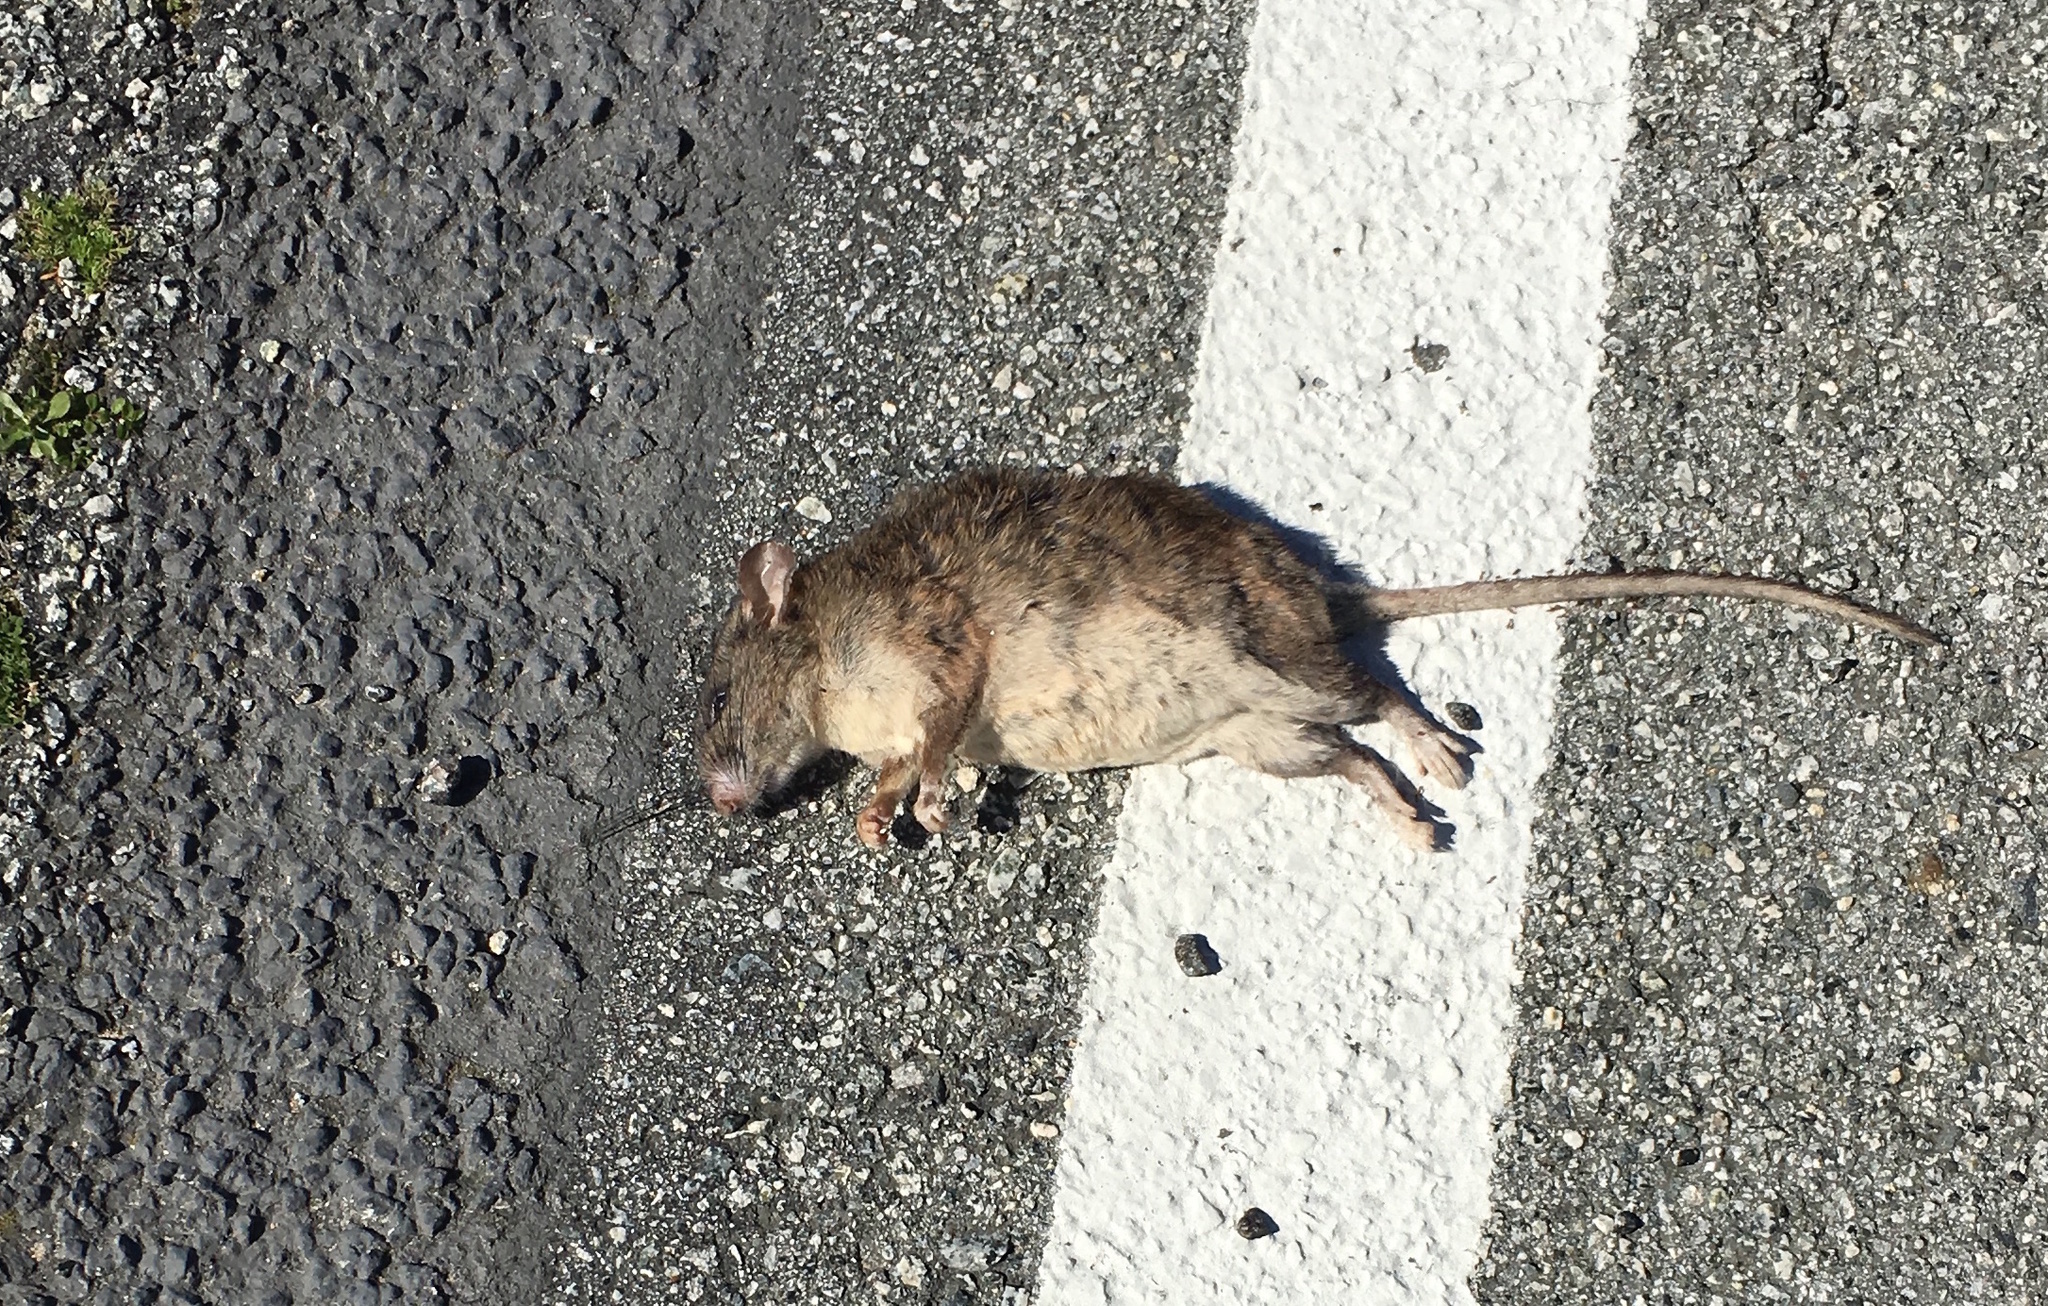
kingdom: Animalia
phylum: Chordata
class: Mammalia
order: Rodentia
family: Cricetidae
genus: Neotoma
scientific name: Neotoma fuscipes
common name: Dusky-footed woodrat
